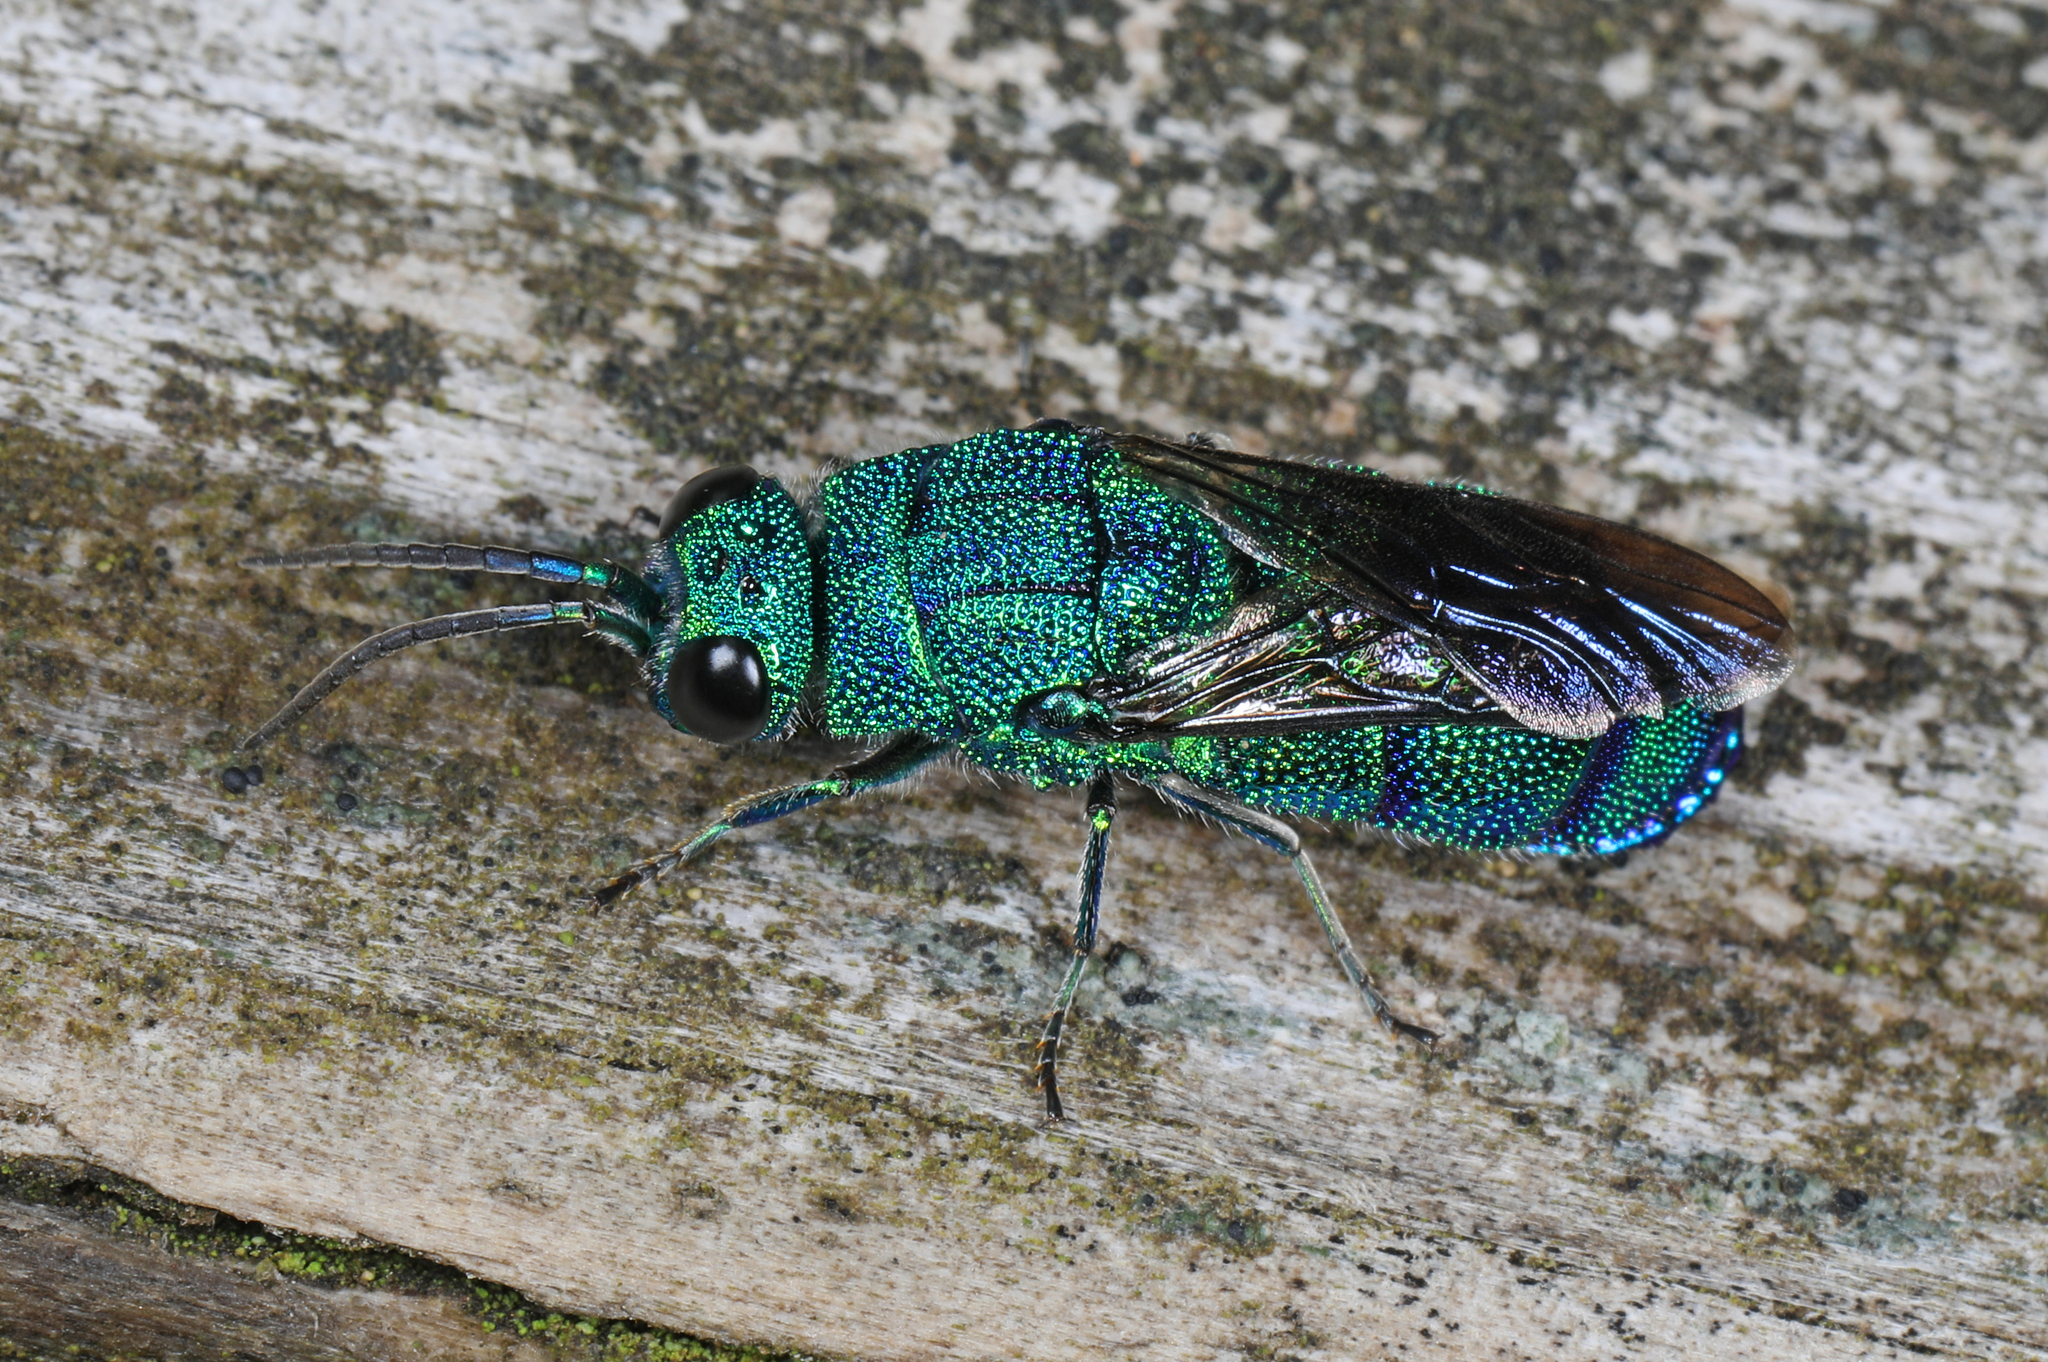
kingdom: Animalia
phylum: Arthropoda
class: Insecta
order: Hymenoptera
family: Chrysididae
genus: Chrysis
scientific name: Chrysis smaragdula
